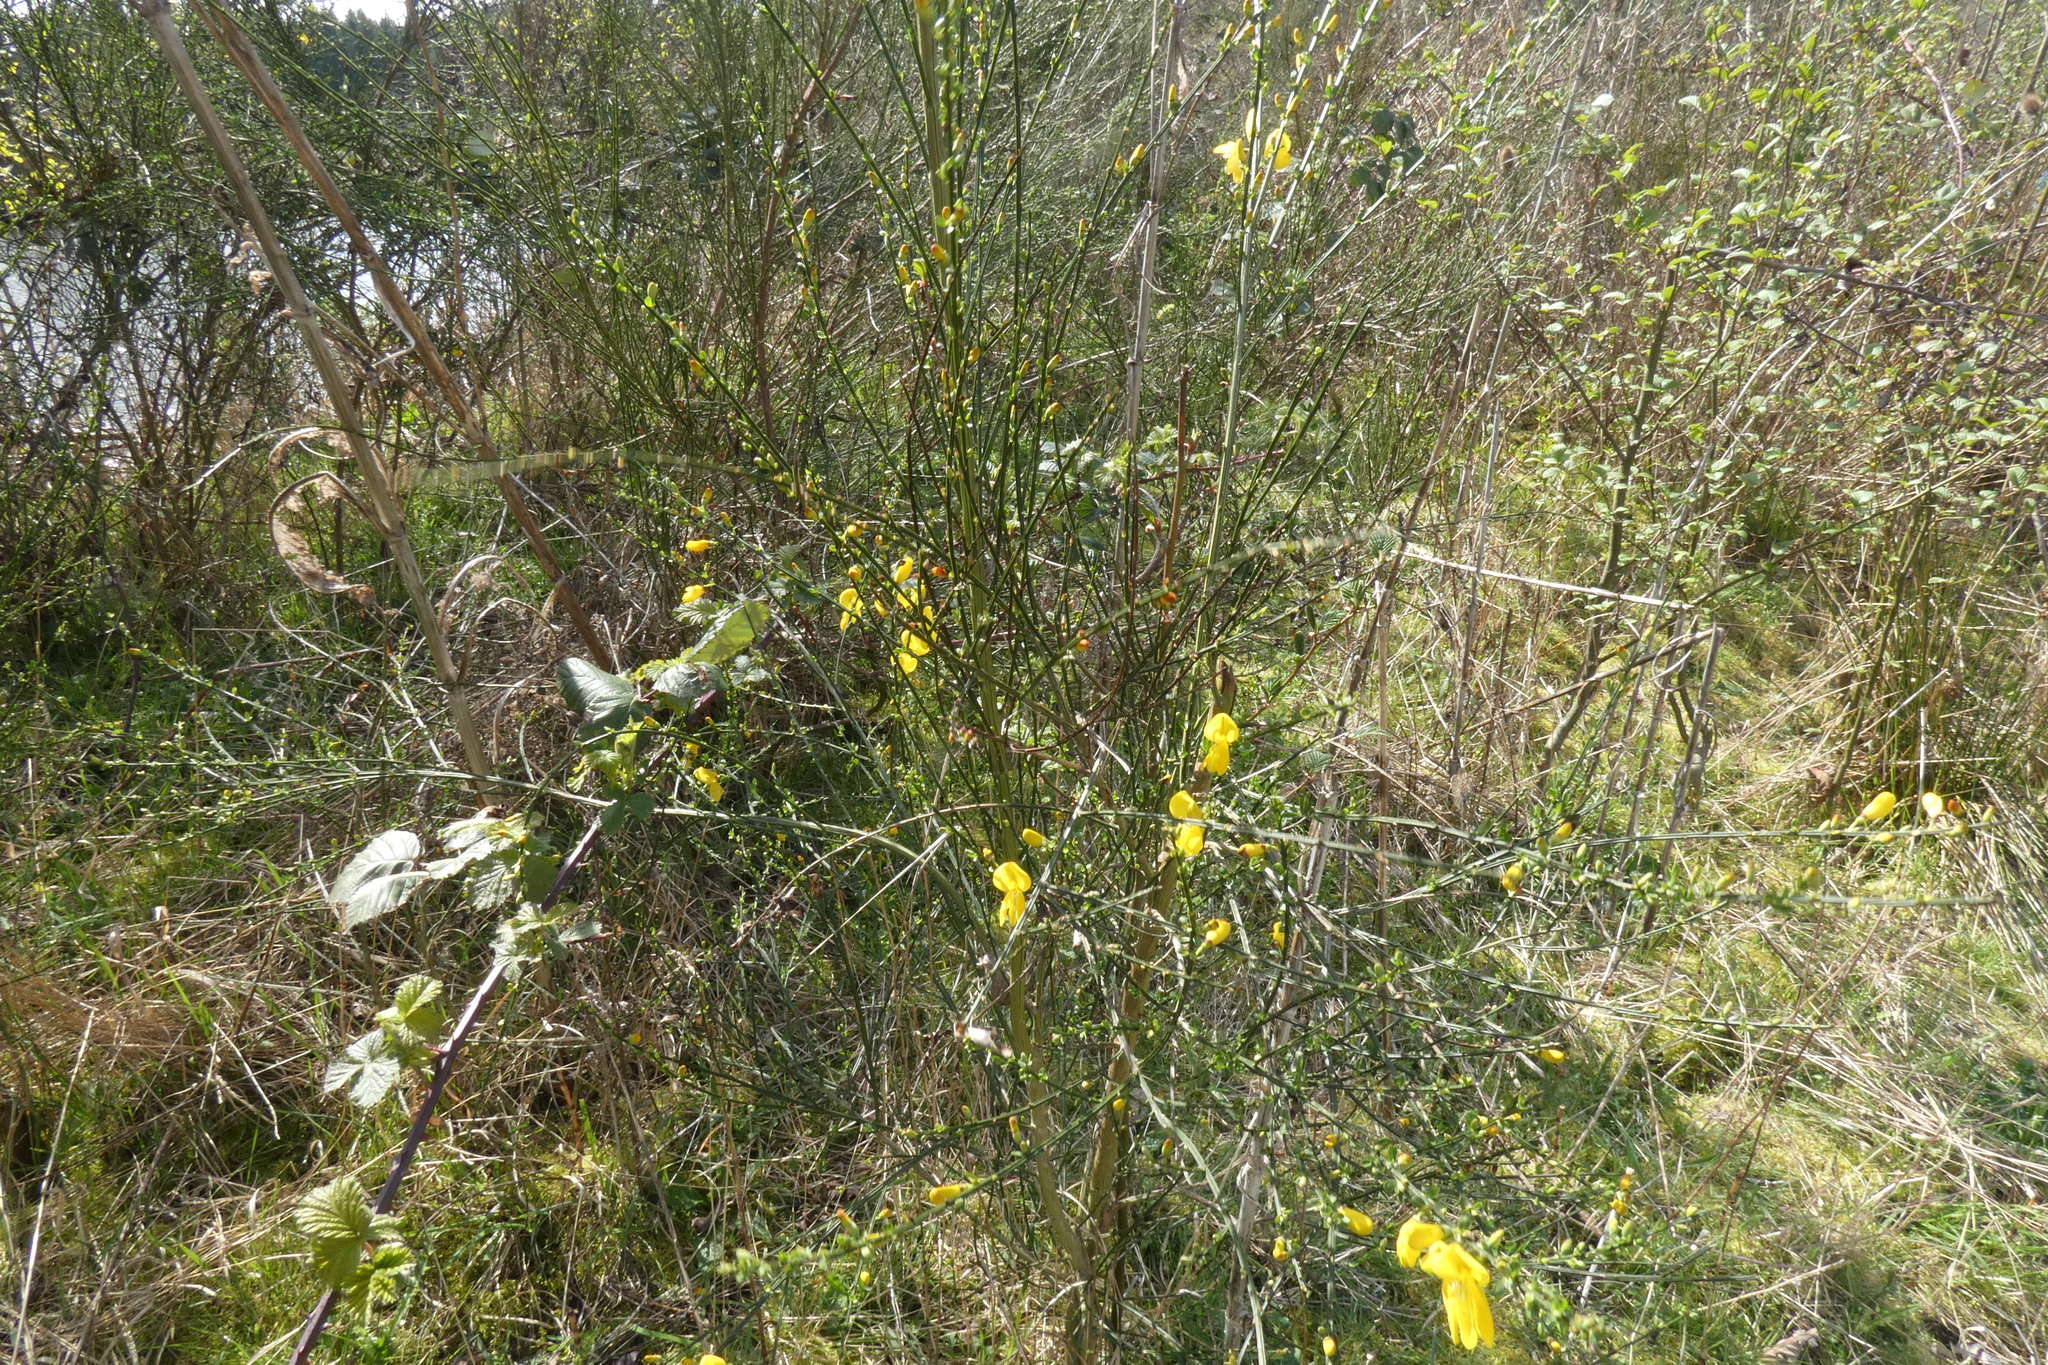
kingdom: Plantae
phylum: Tracheophyta
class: Magnoliopsida
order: Fabales
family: Fabaceae
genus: Cytisus
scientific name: Cytisus scoparius
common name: Scotch broom
